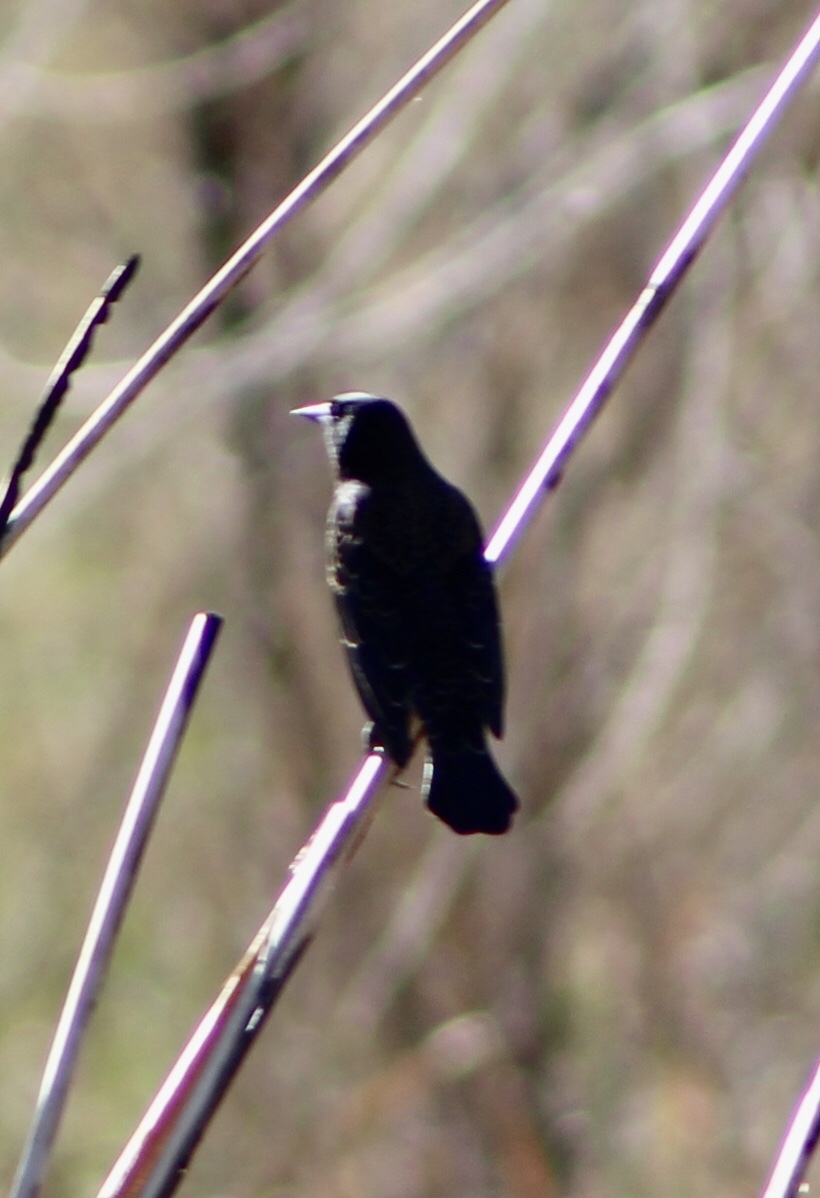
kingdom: Animalia
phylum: Chordata
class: Aves
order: Passeriformes
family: Icteridae
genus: Agelaius
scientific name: Agelaius phoeniceus
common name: Red-winged blackbird
